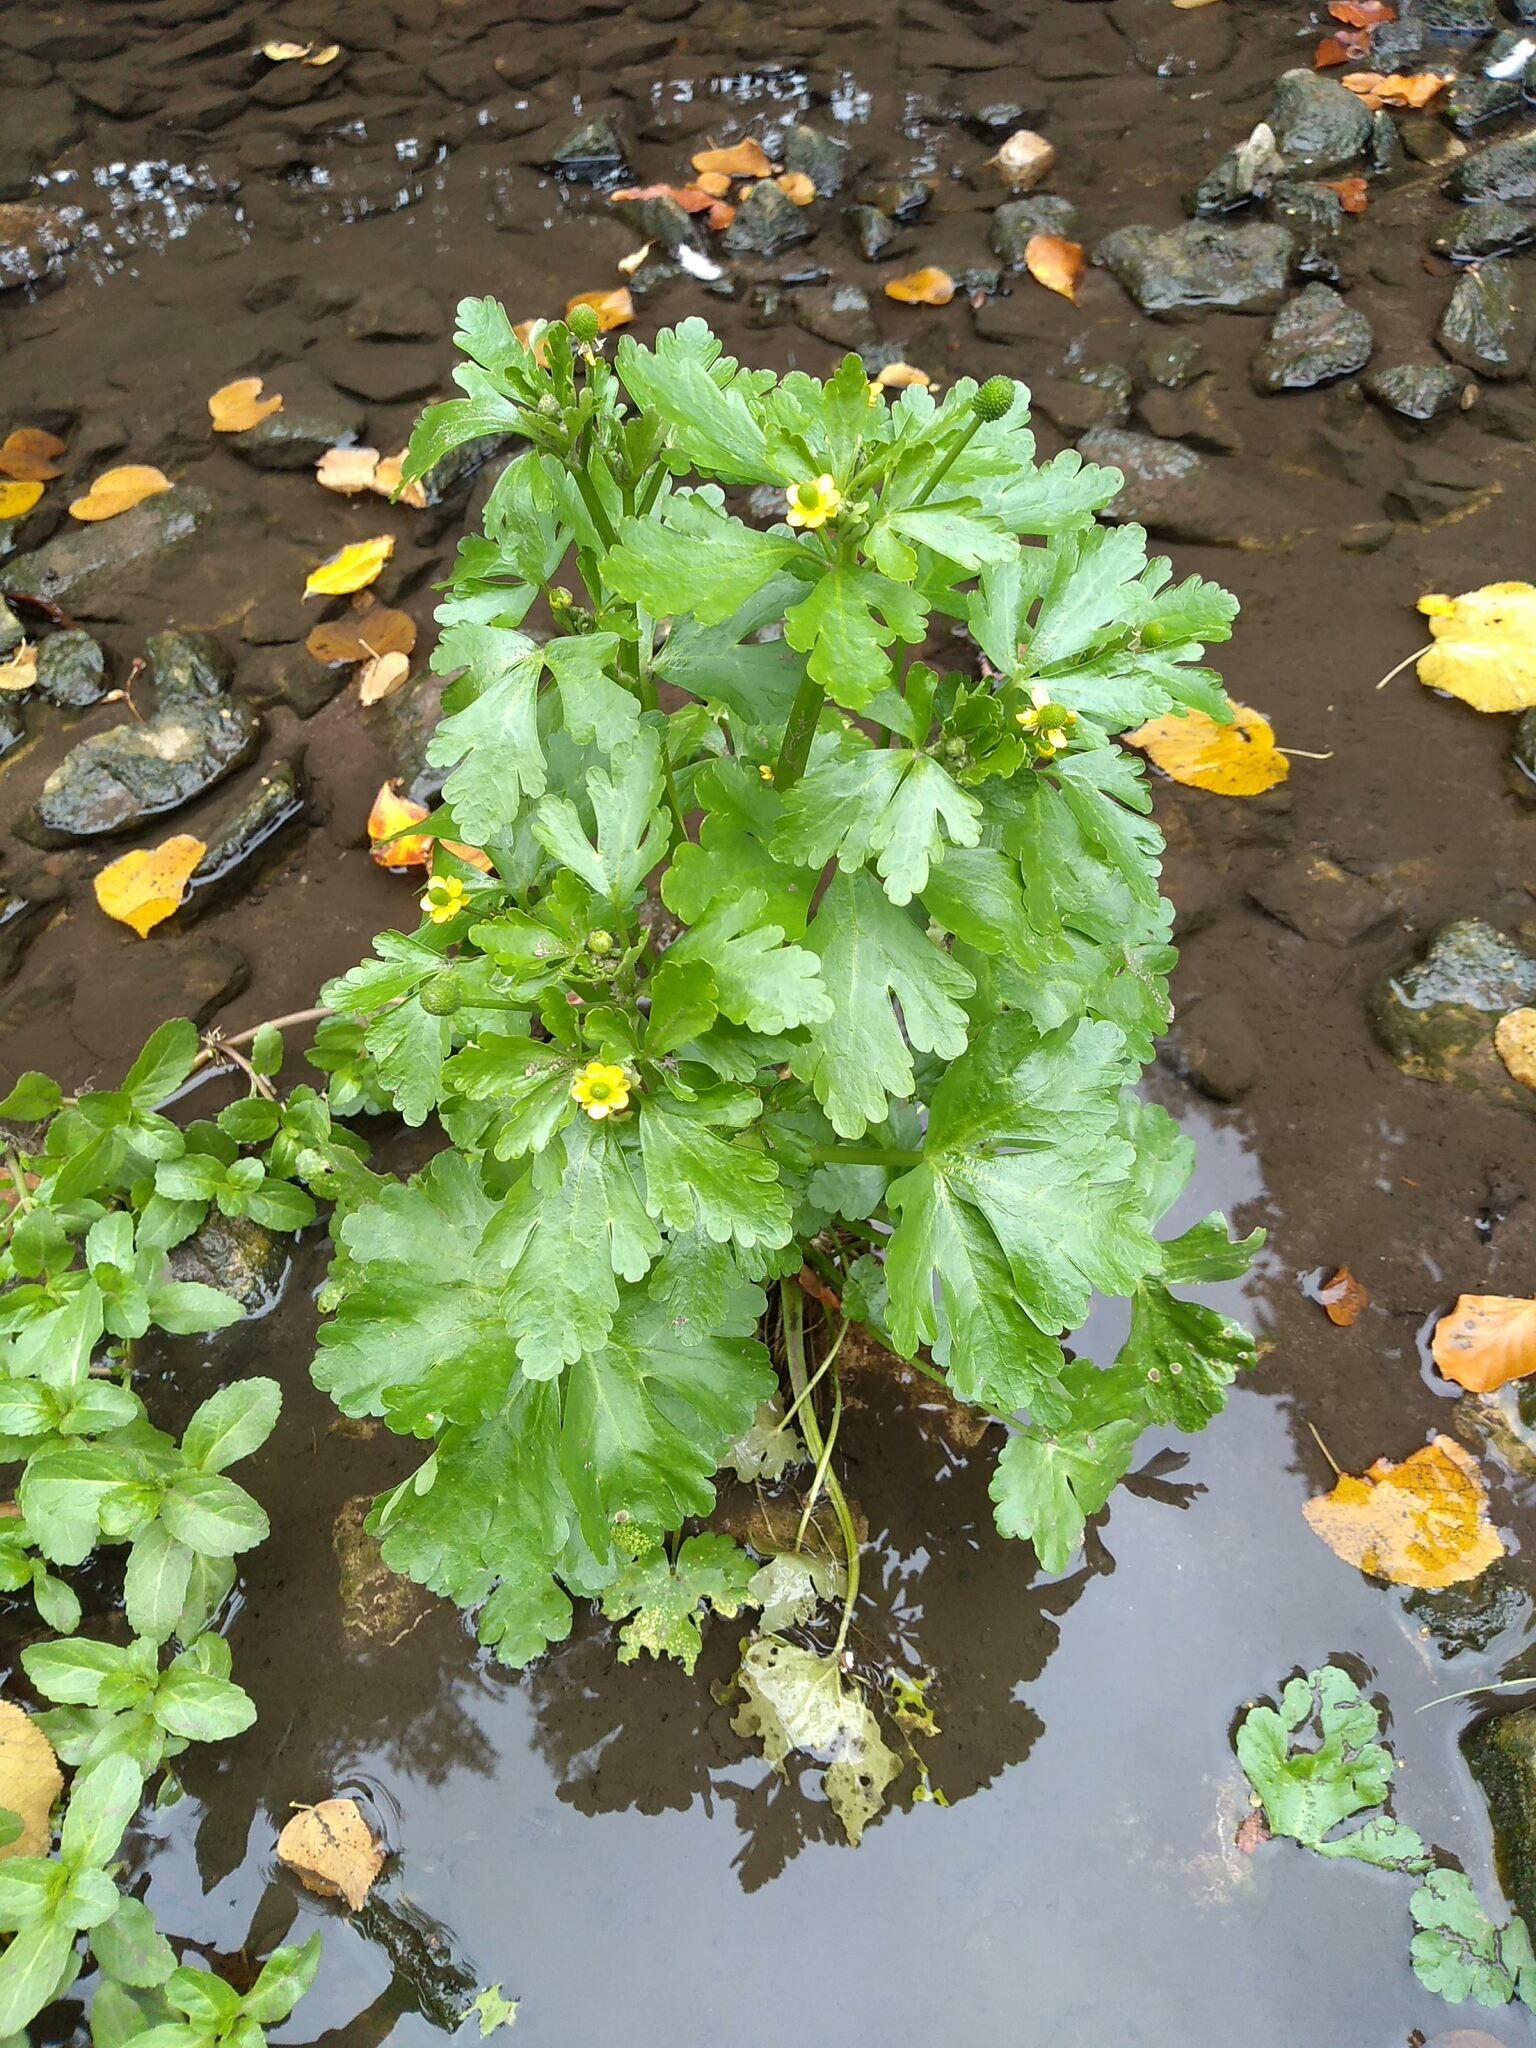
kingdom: Plantae
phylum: Tracheophyta
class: Magnoliopsida
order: Ranunculales
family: Ranunculaceae
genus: Ranunculus
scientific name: Ranunculus sceleratus
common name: Celery-leaved buttercup
